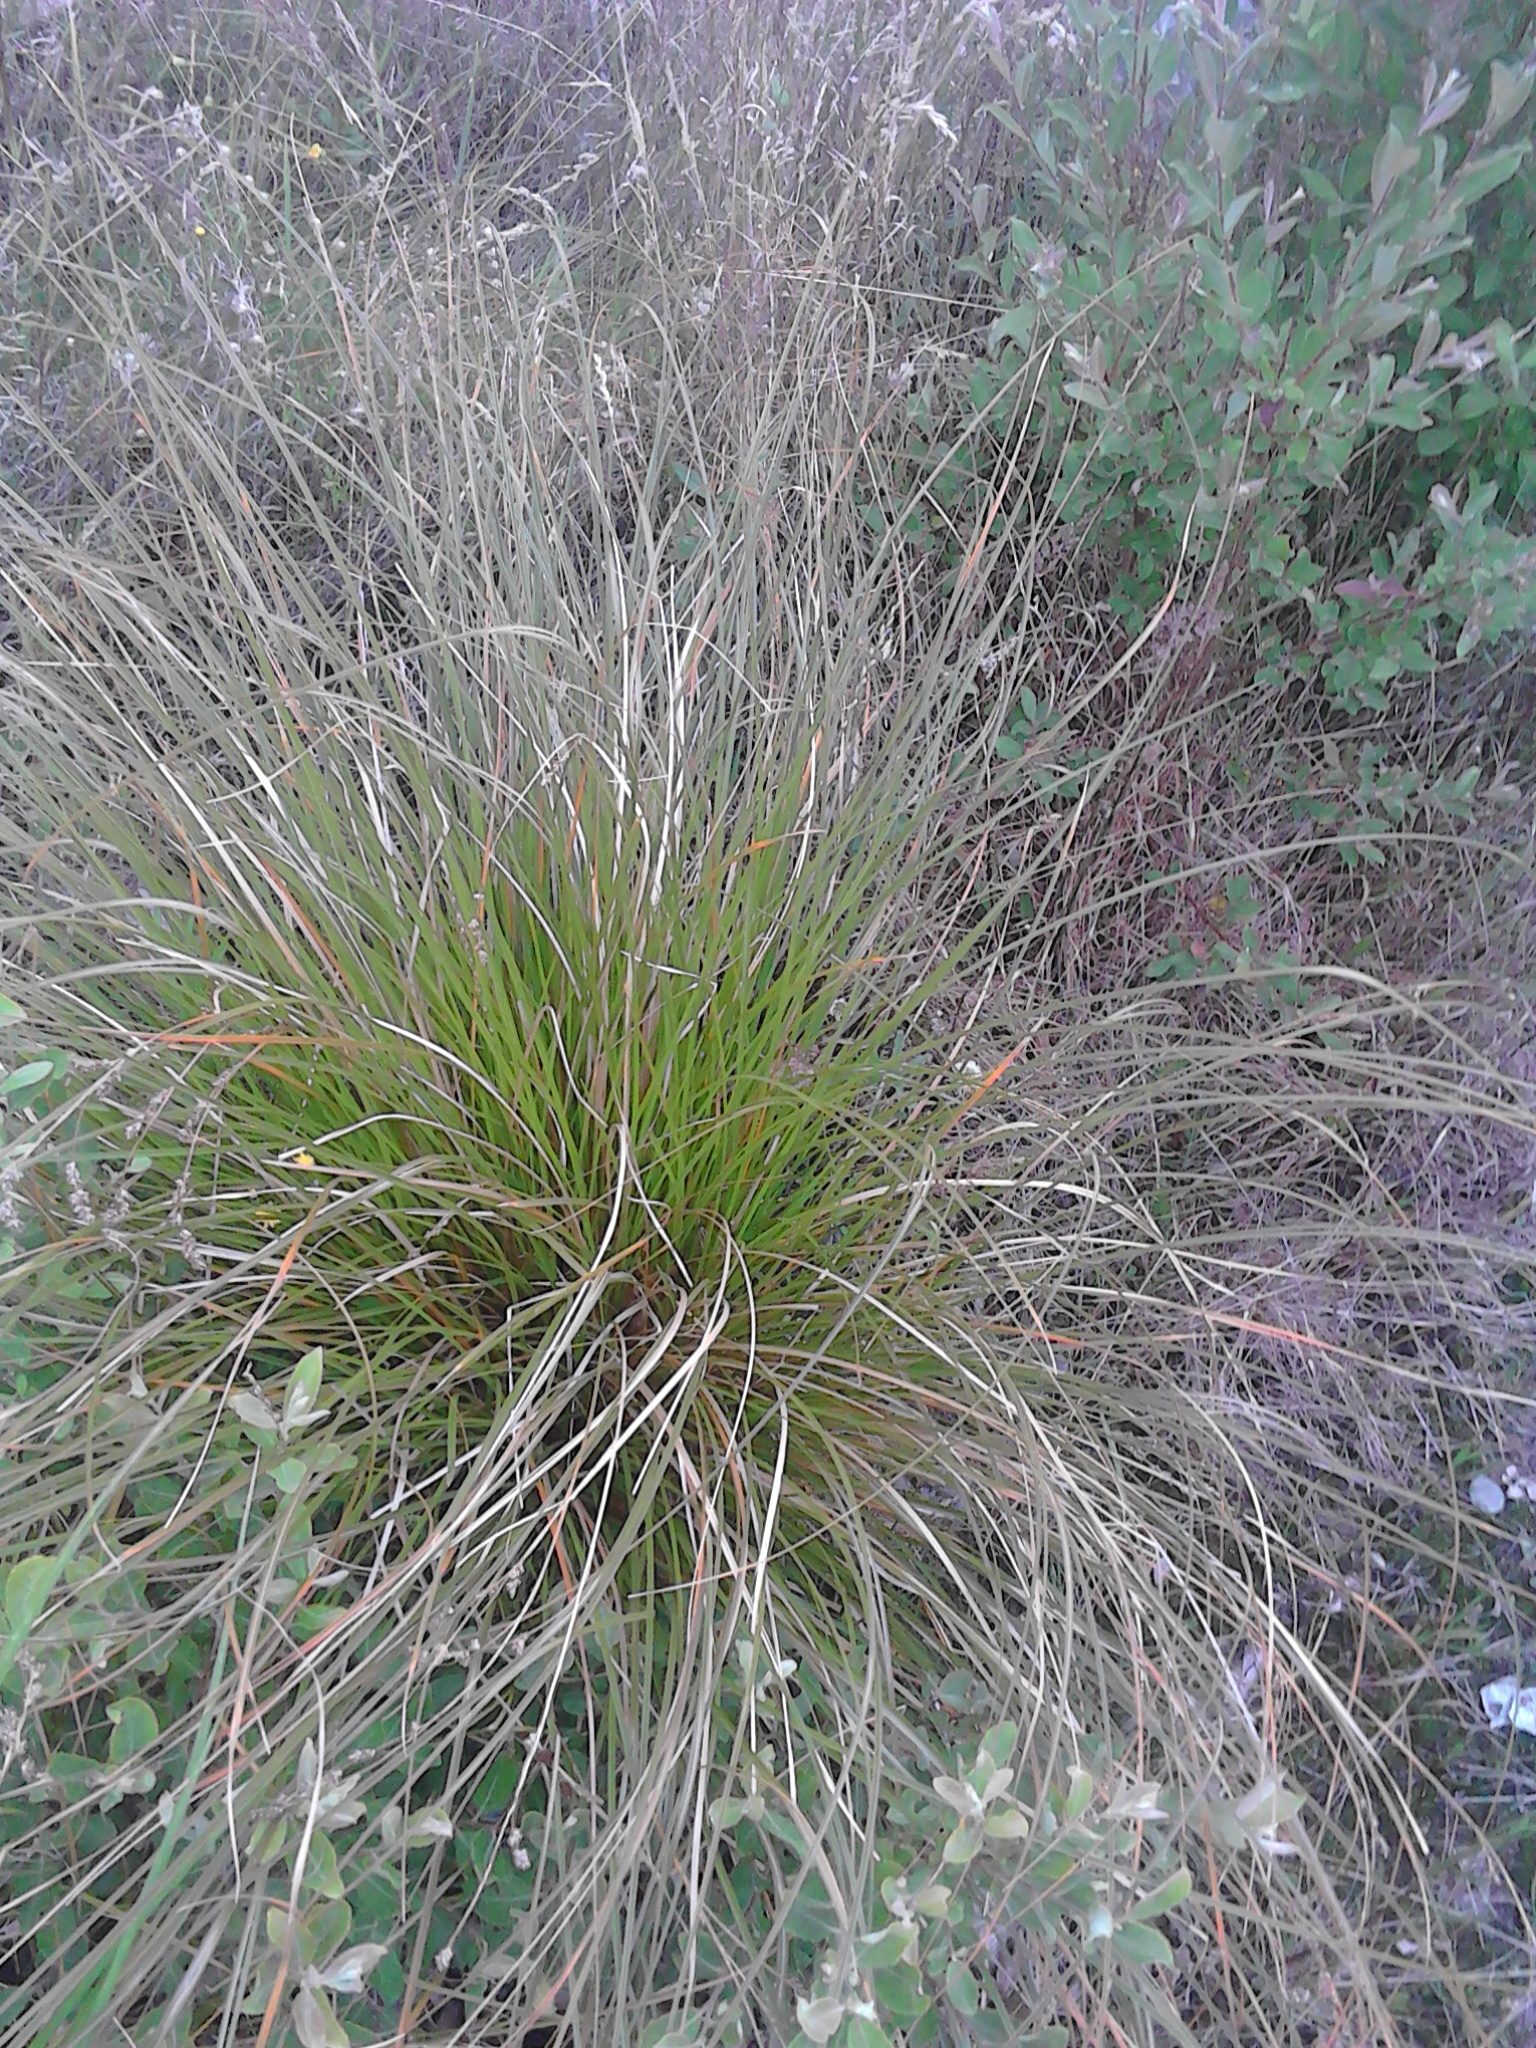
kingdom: Plantae
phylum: Tracheophyta
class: Liliopsida
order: Poales
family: Cyperaceae
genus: Carex
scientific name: Carex secta
